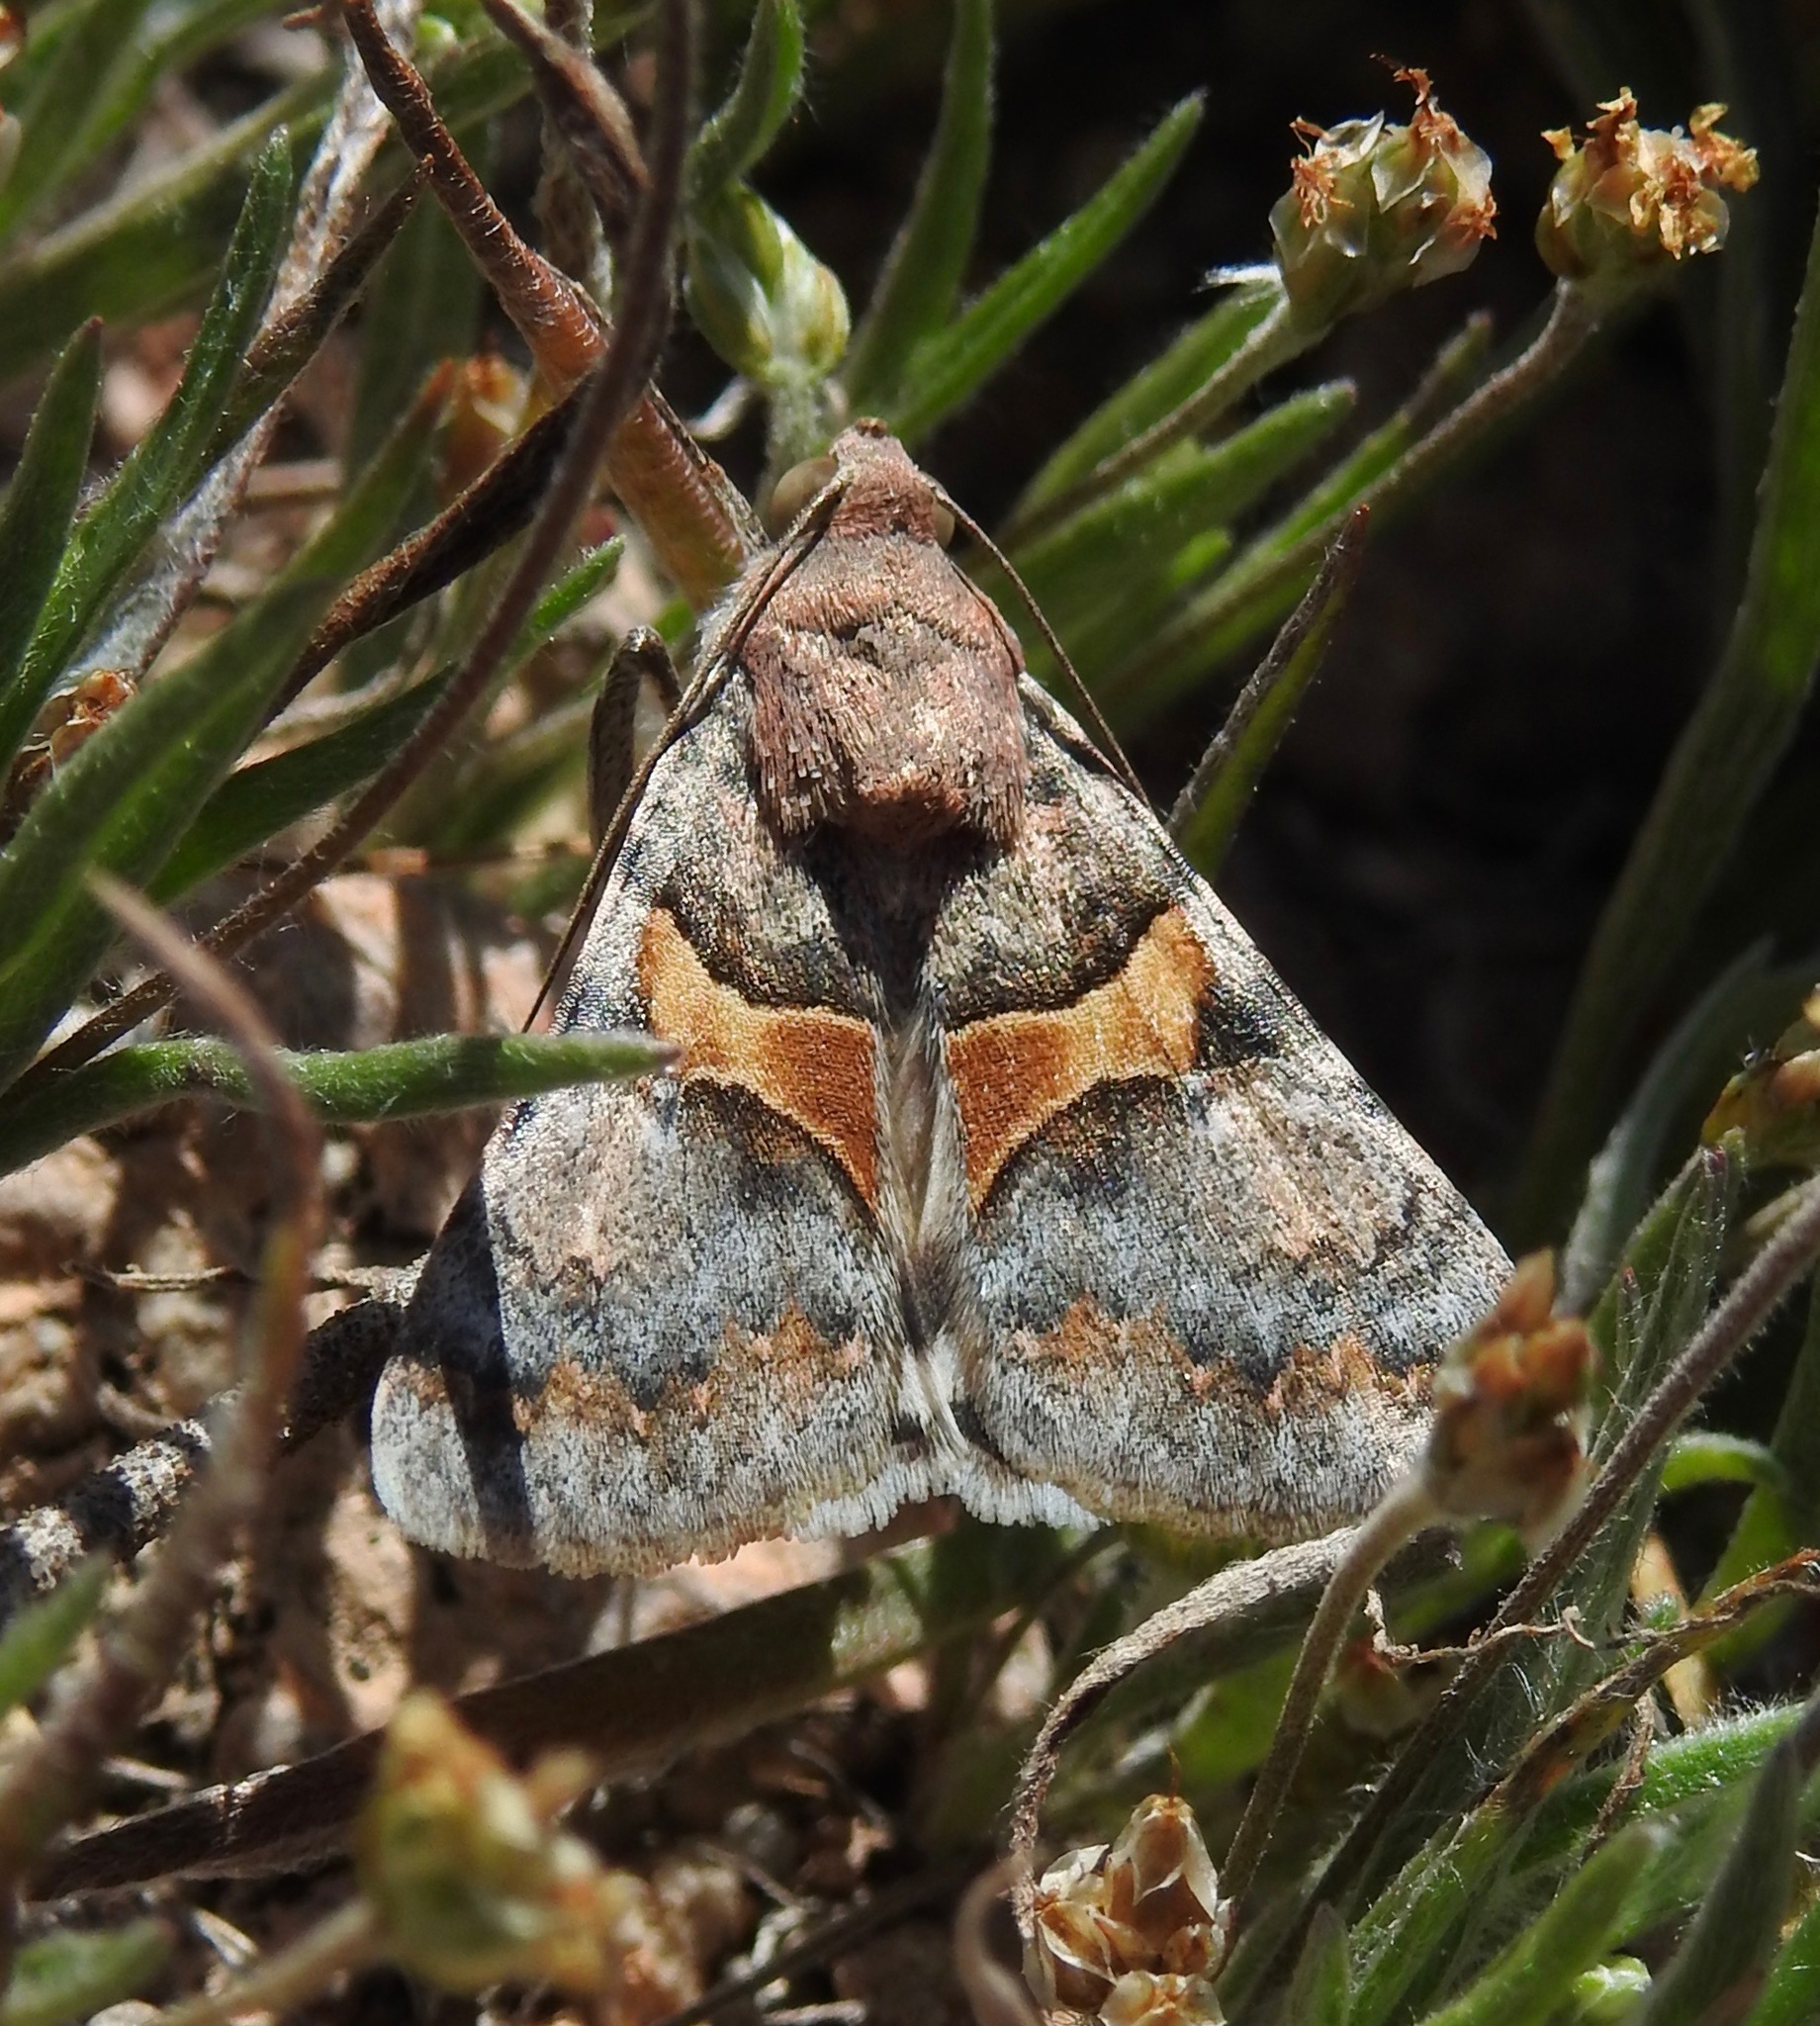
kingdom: Animalia
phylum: Arthropoda
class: Insecta
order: Lepidoptera
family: Erebidae
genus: Melipotis
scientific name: Melipotis jucunda
